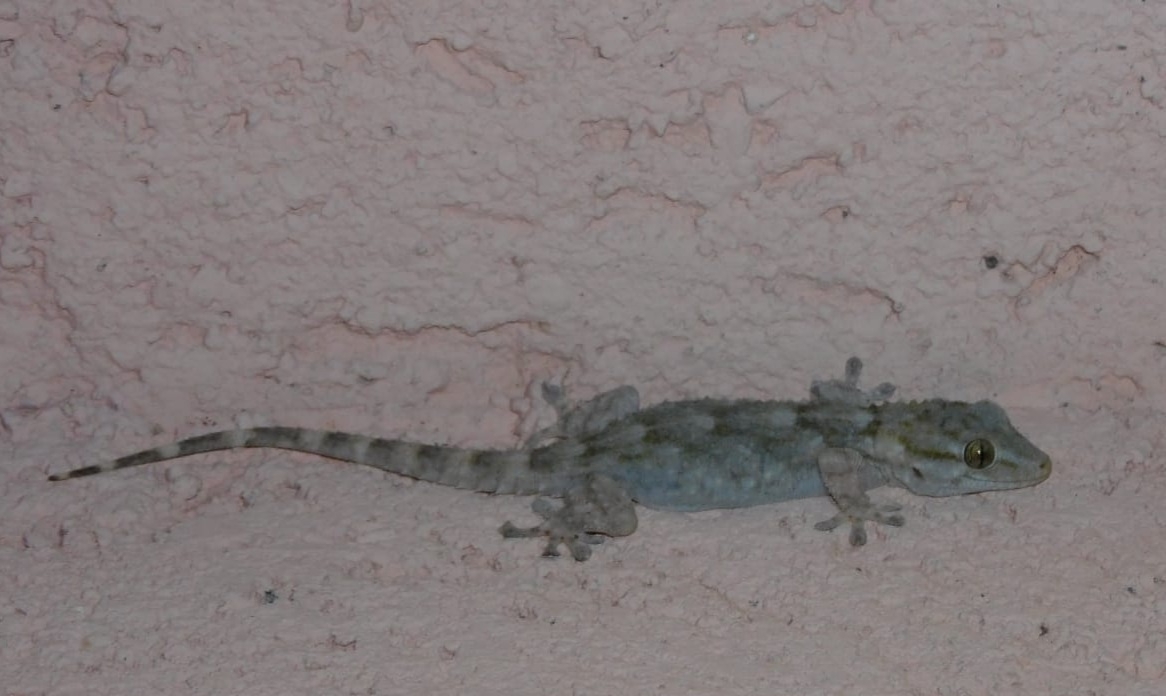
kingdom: Animalia
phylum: Chordata
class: Squamata
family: Phyllodactylidae
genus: Tarentola
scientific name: Tarentola mauritanica
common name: Moorish gecko
